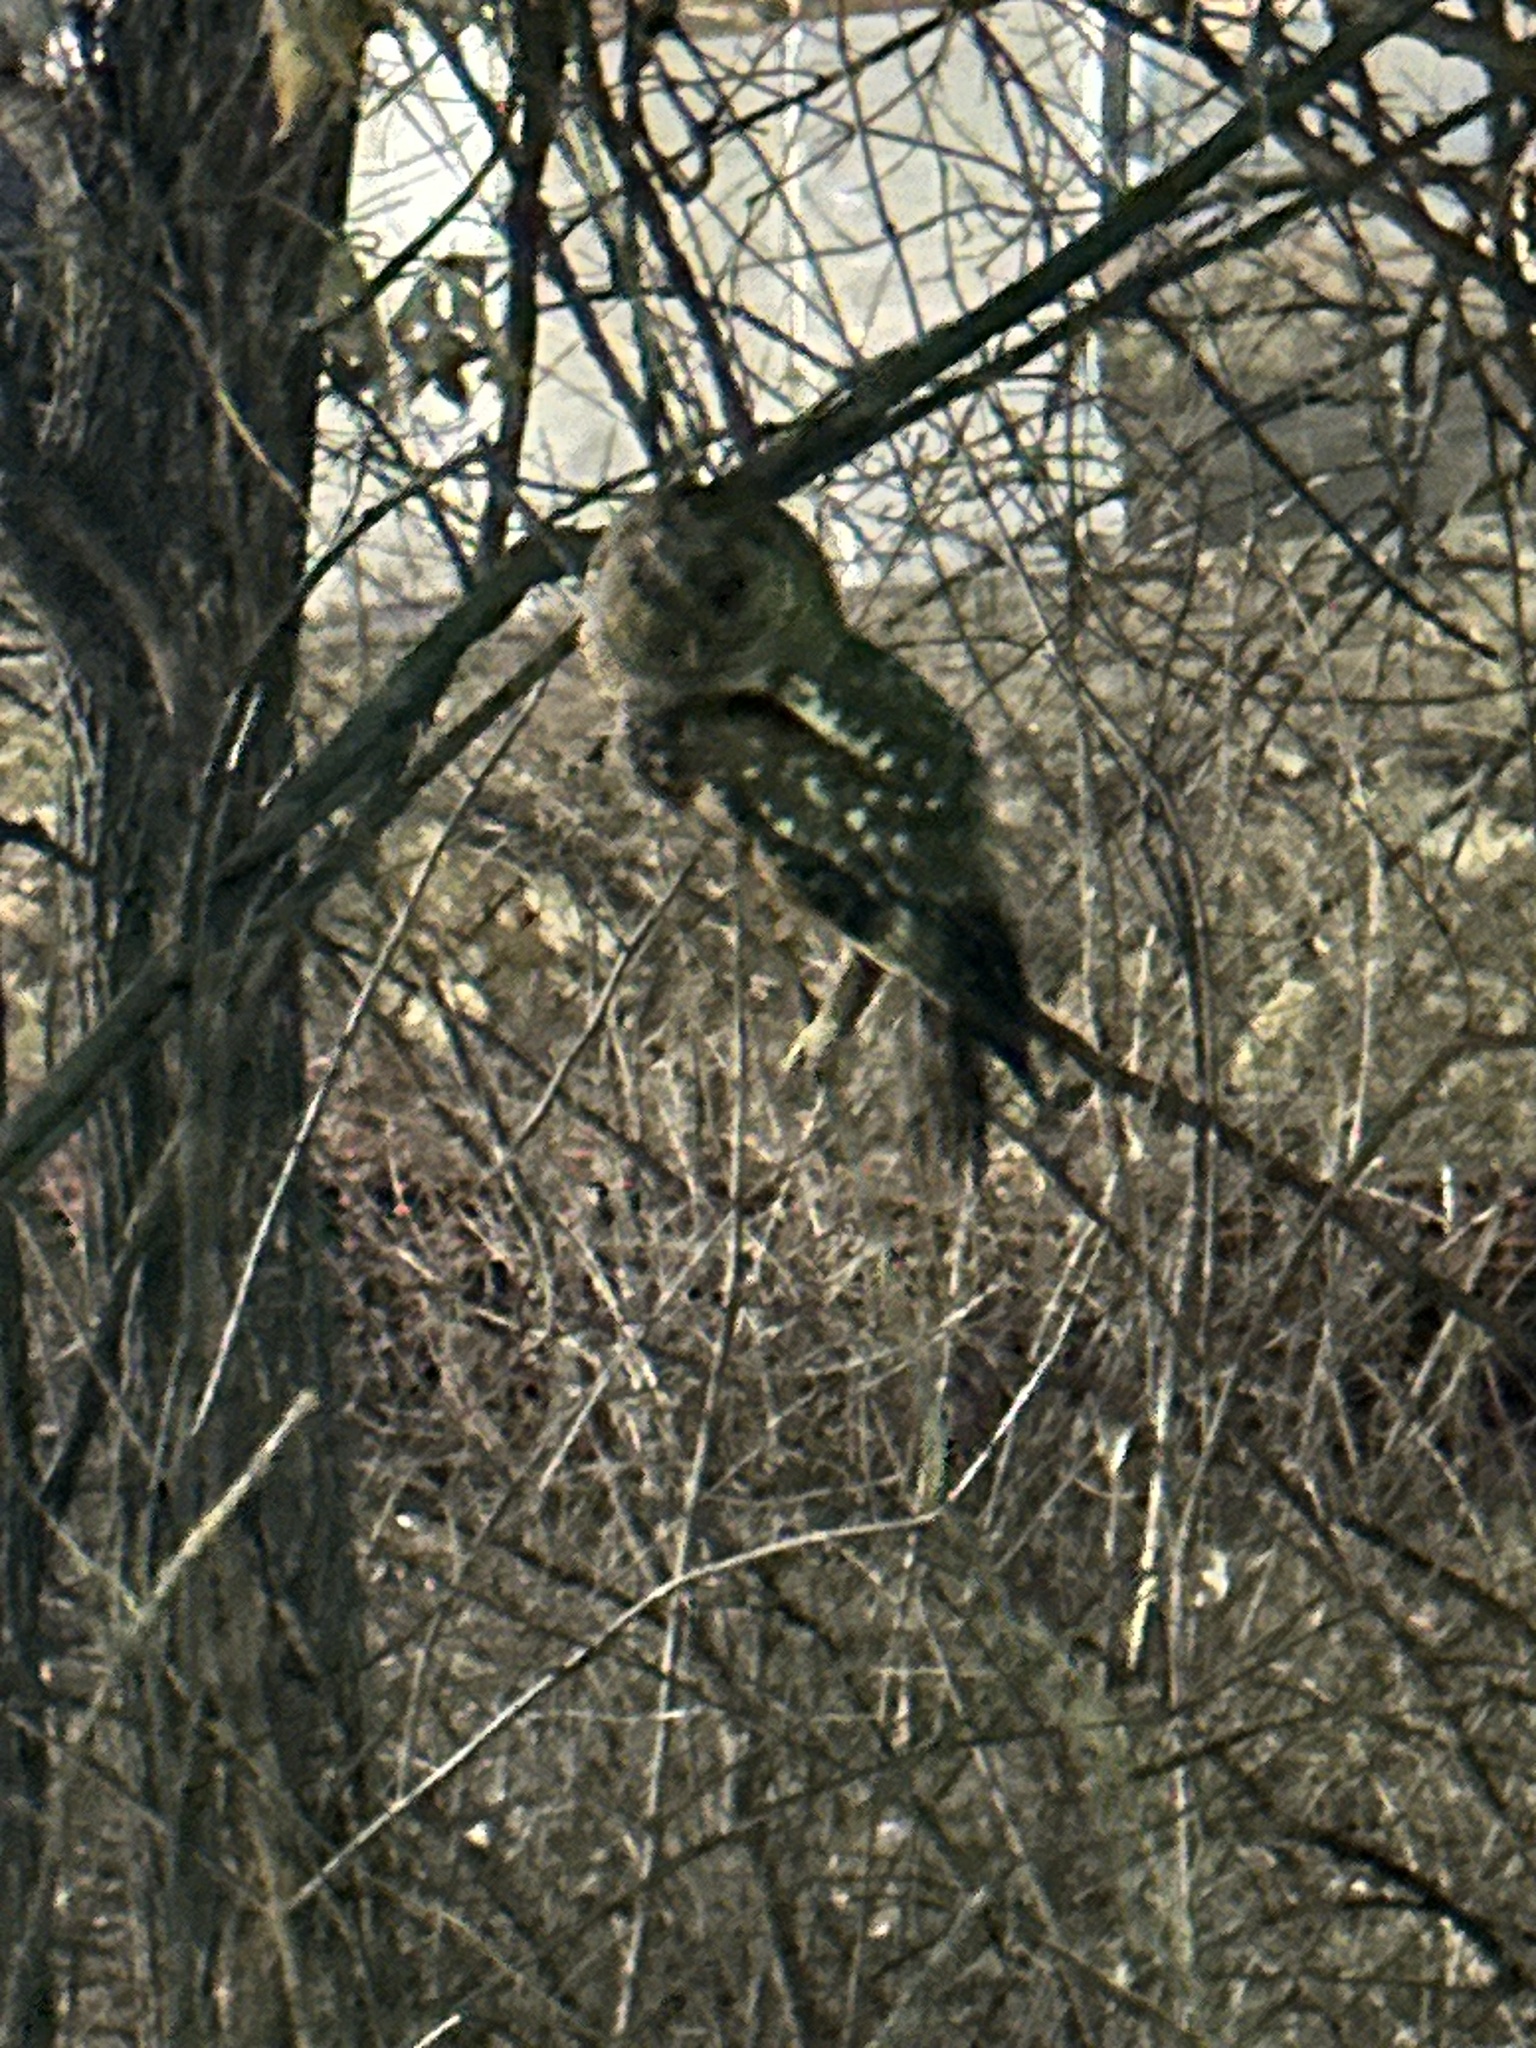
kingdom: Animalia
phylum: Chordata
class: Aves
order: Strigiformes
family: Strigidae
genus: Strix
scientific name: Strix varia
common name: Barred owl
